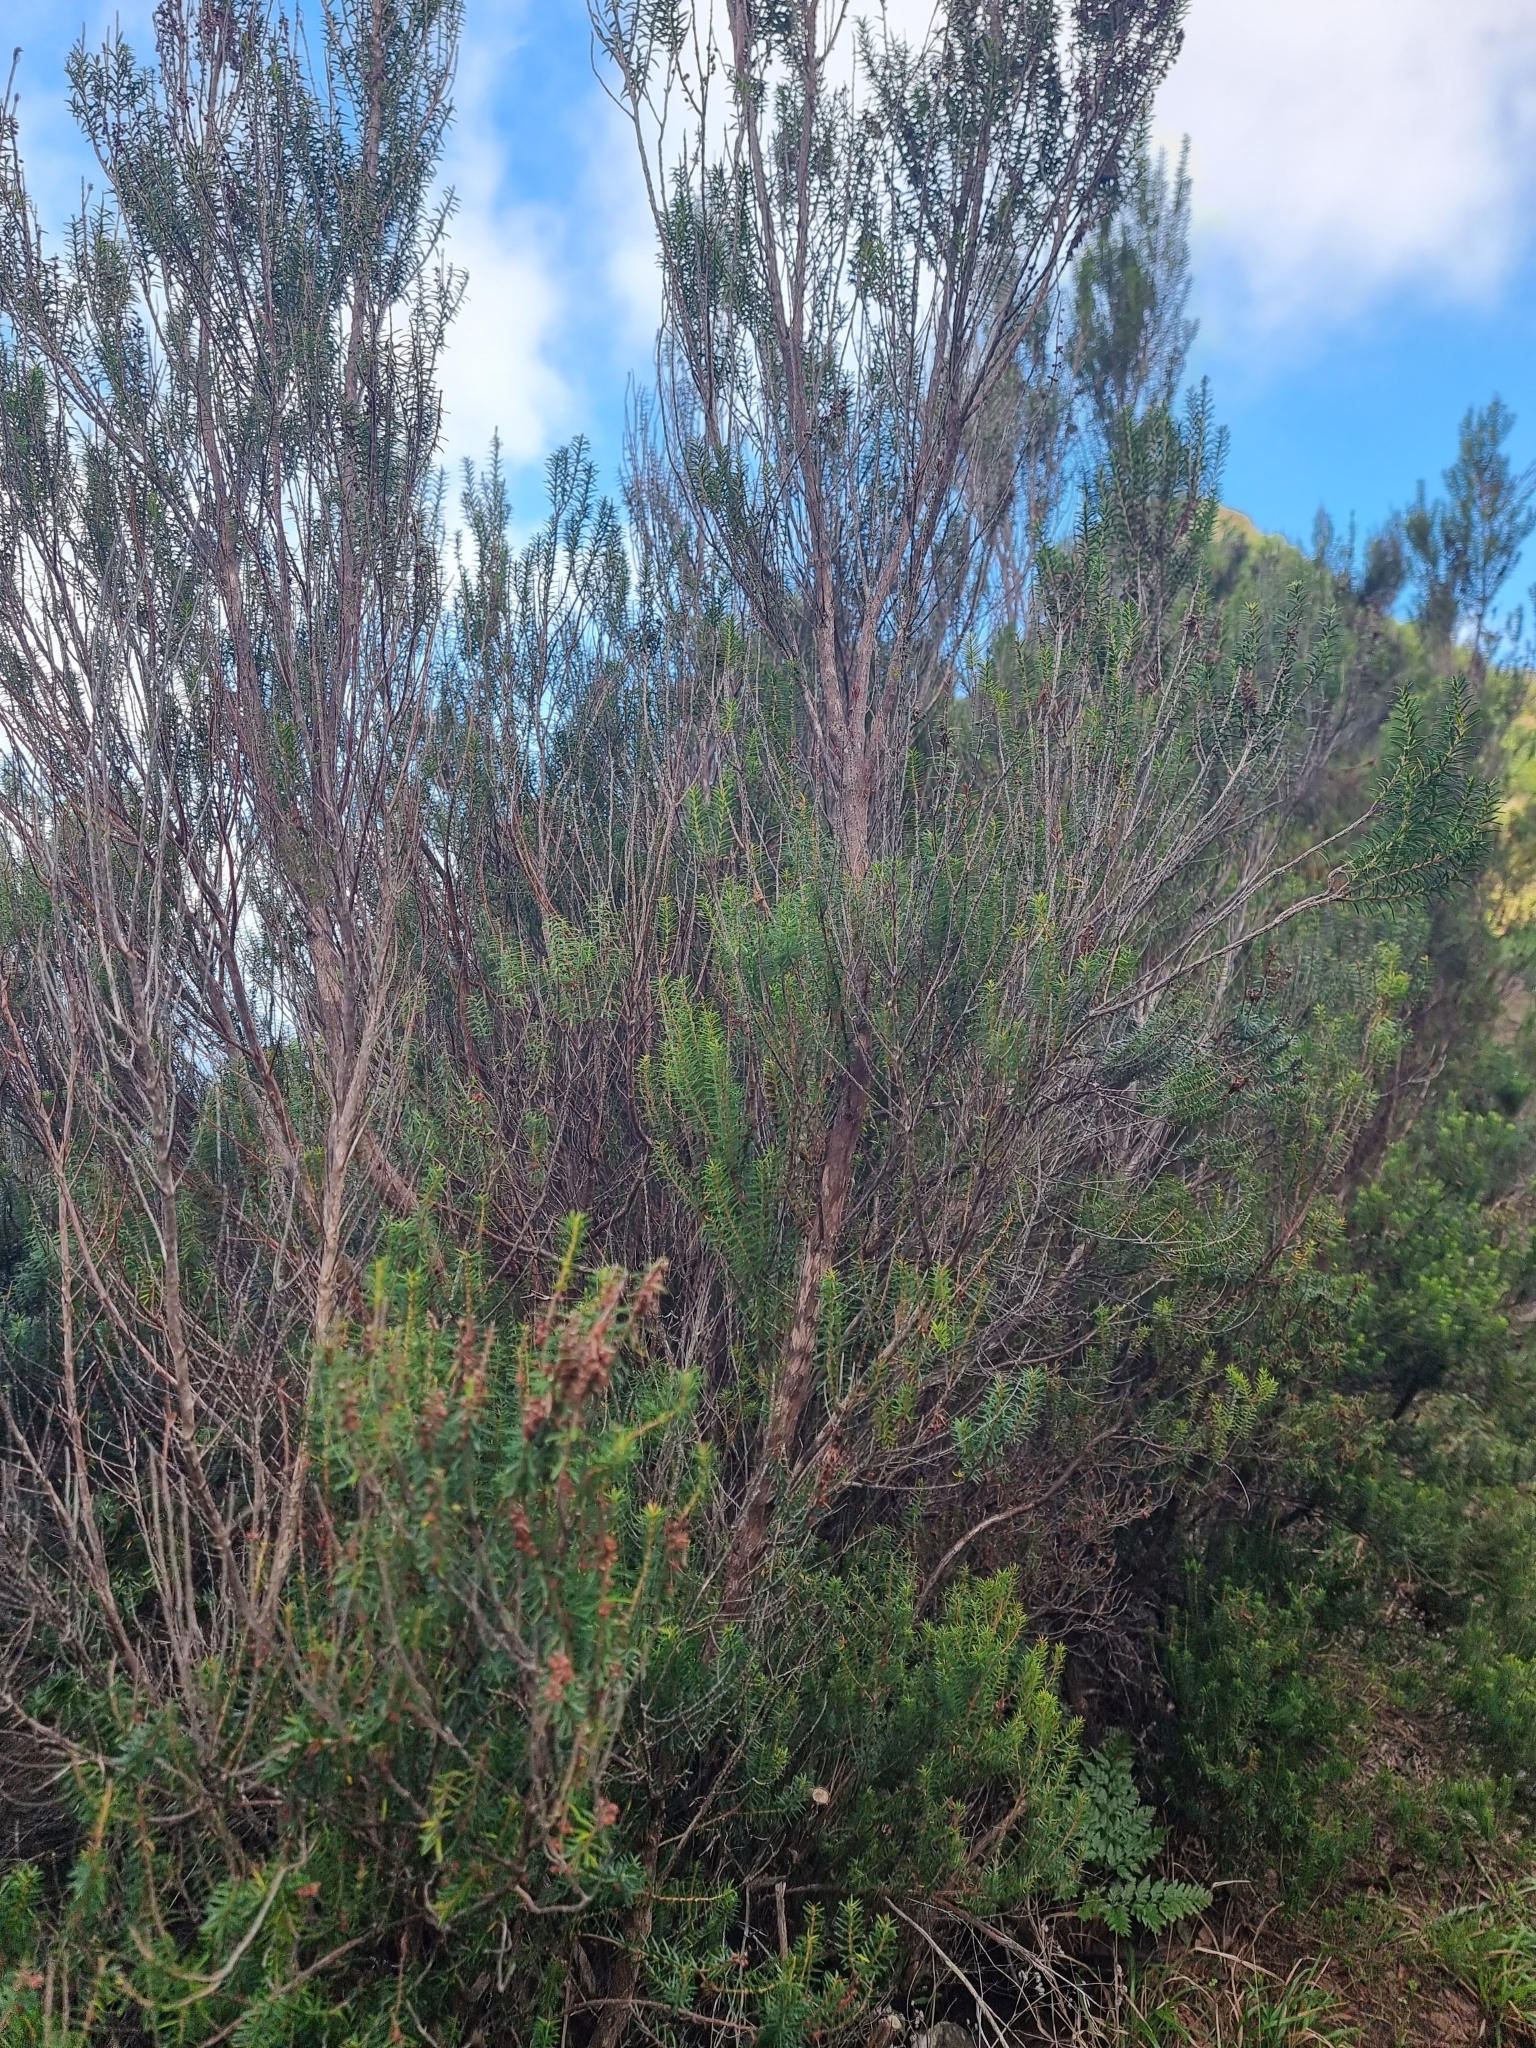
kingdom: Plantae
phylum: Tracheophyta
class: Magnoliopsida
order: Ericales
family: Ericaceae
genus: Erica
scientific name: Erica platycodon
